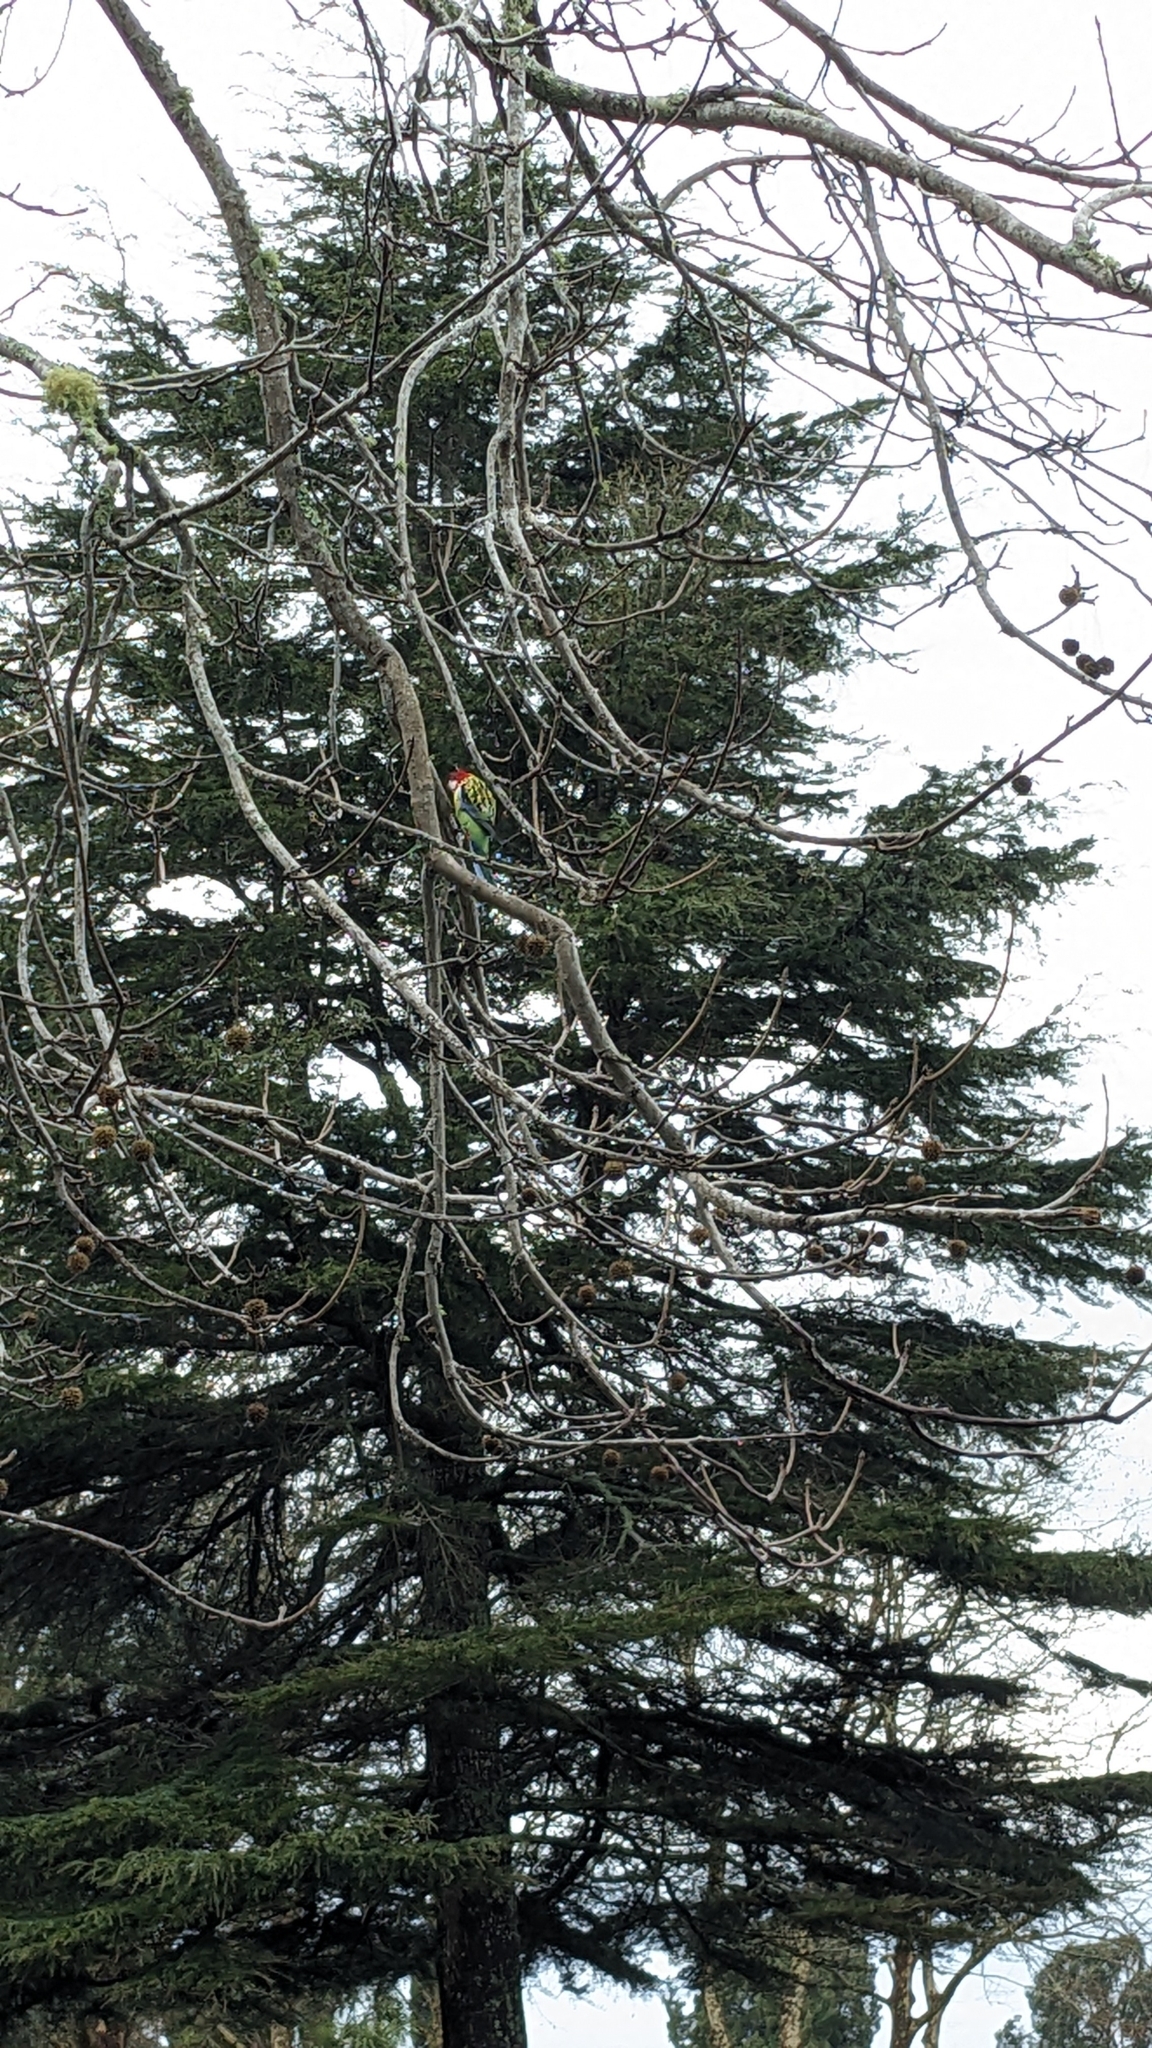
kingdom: Animalia
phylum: Chordata
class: Aves
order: Psittaciformes
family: Psittacidae
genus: Platycercus
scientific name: Platycercus eximius
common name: Eastern rosella
